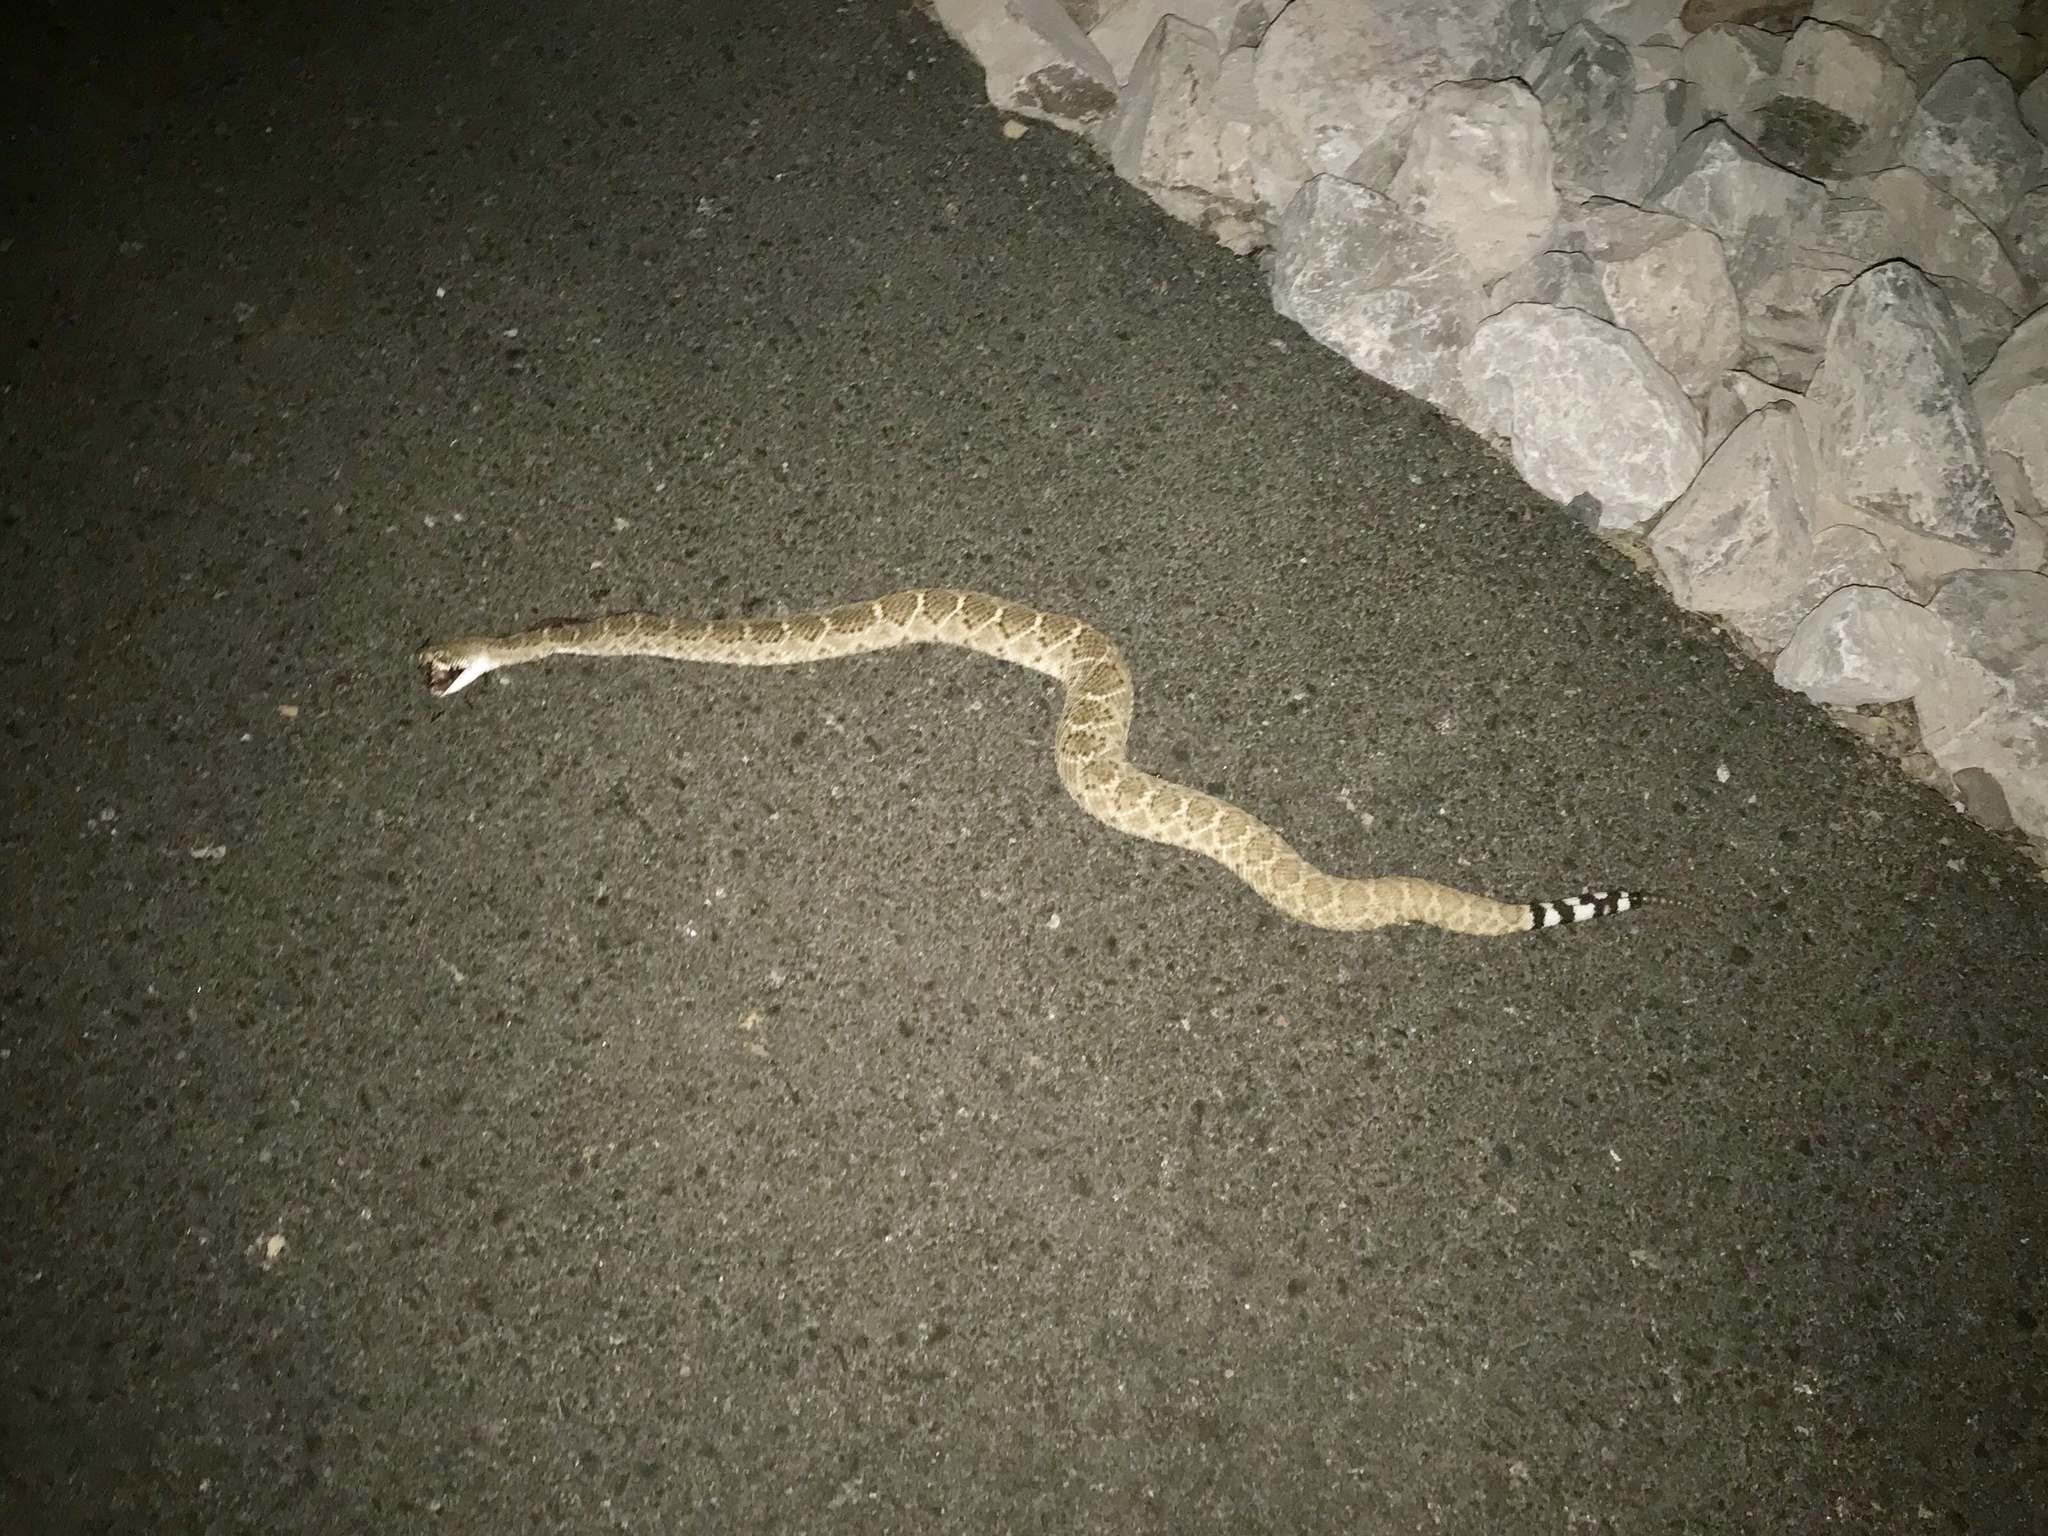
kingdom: Animalia
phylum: Chordata
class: Squamata
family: Viperidae
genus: Crotalus
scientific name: Crotalus atrox
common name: Western diamond-backed rattlesnake
